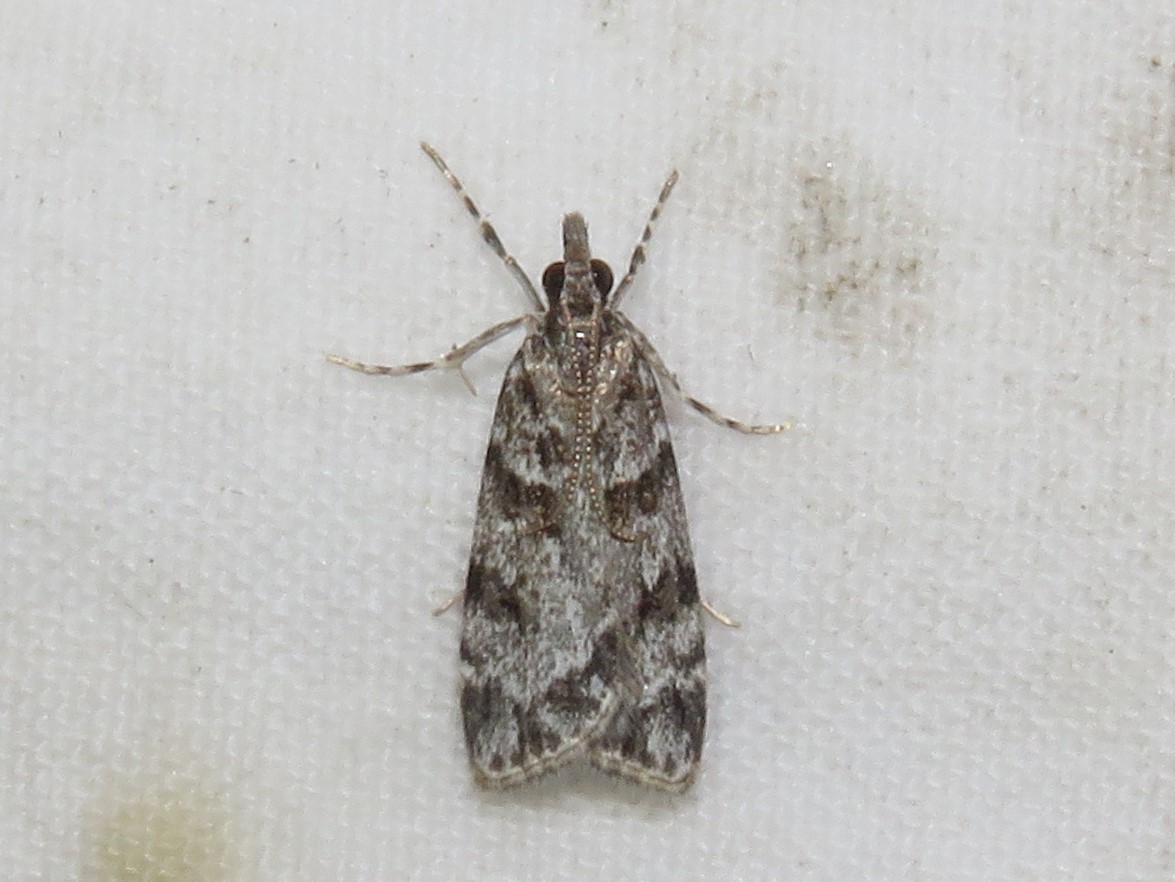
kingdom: Animalia
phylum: Arthropoda
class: Insecta
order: Lepidoptera
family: Crambidae
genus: Scoparia
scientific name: Scoparia biplagialis
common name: Double-striped scoparia moth
